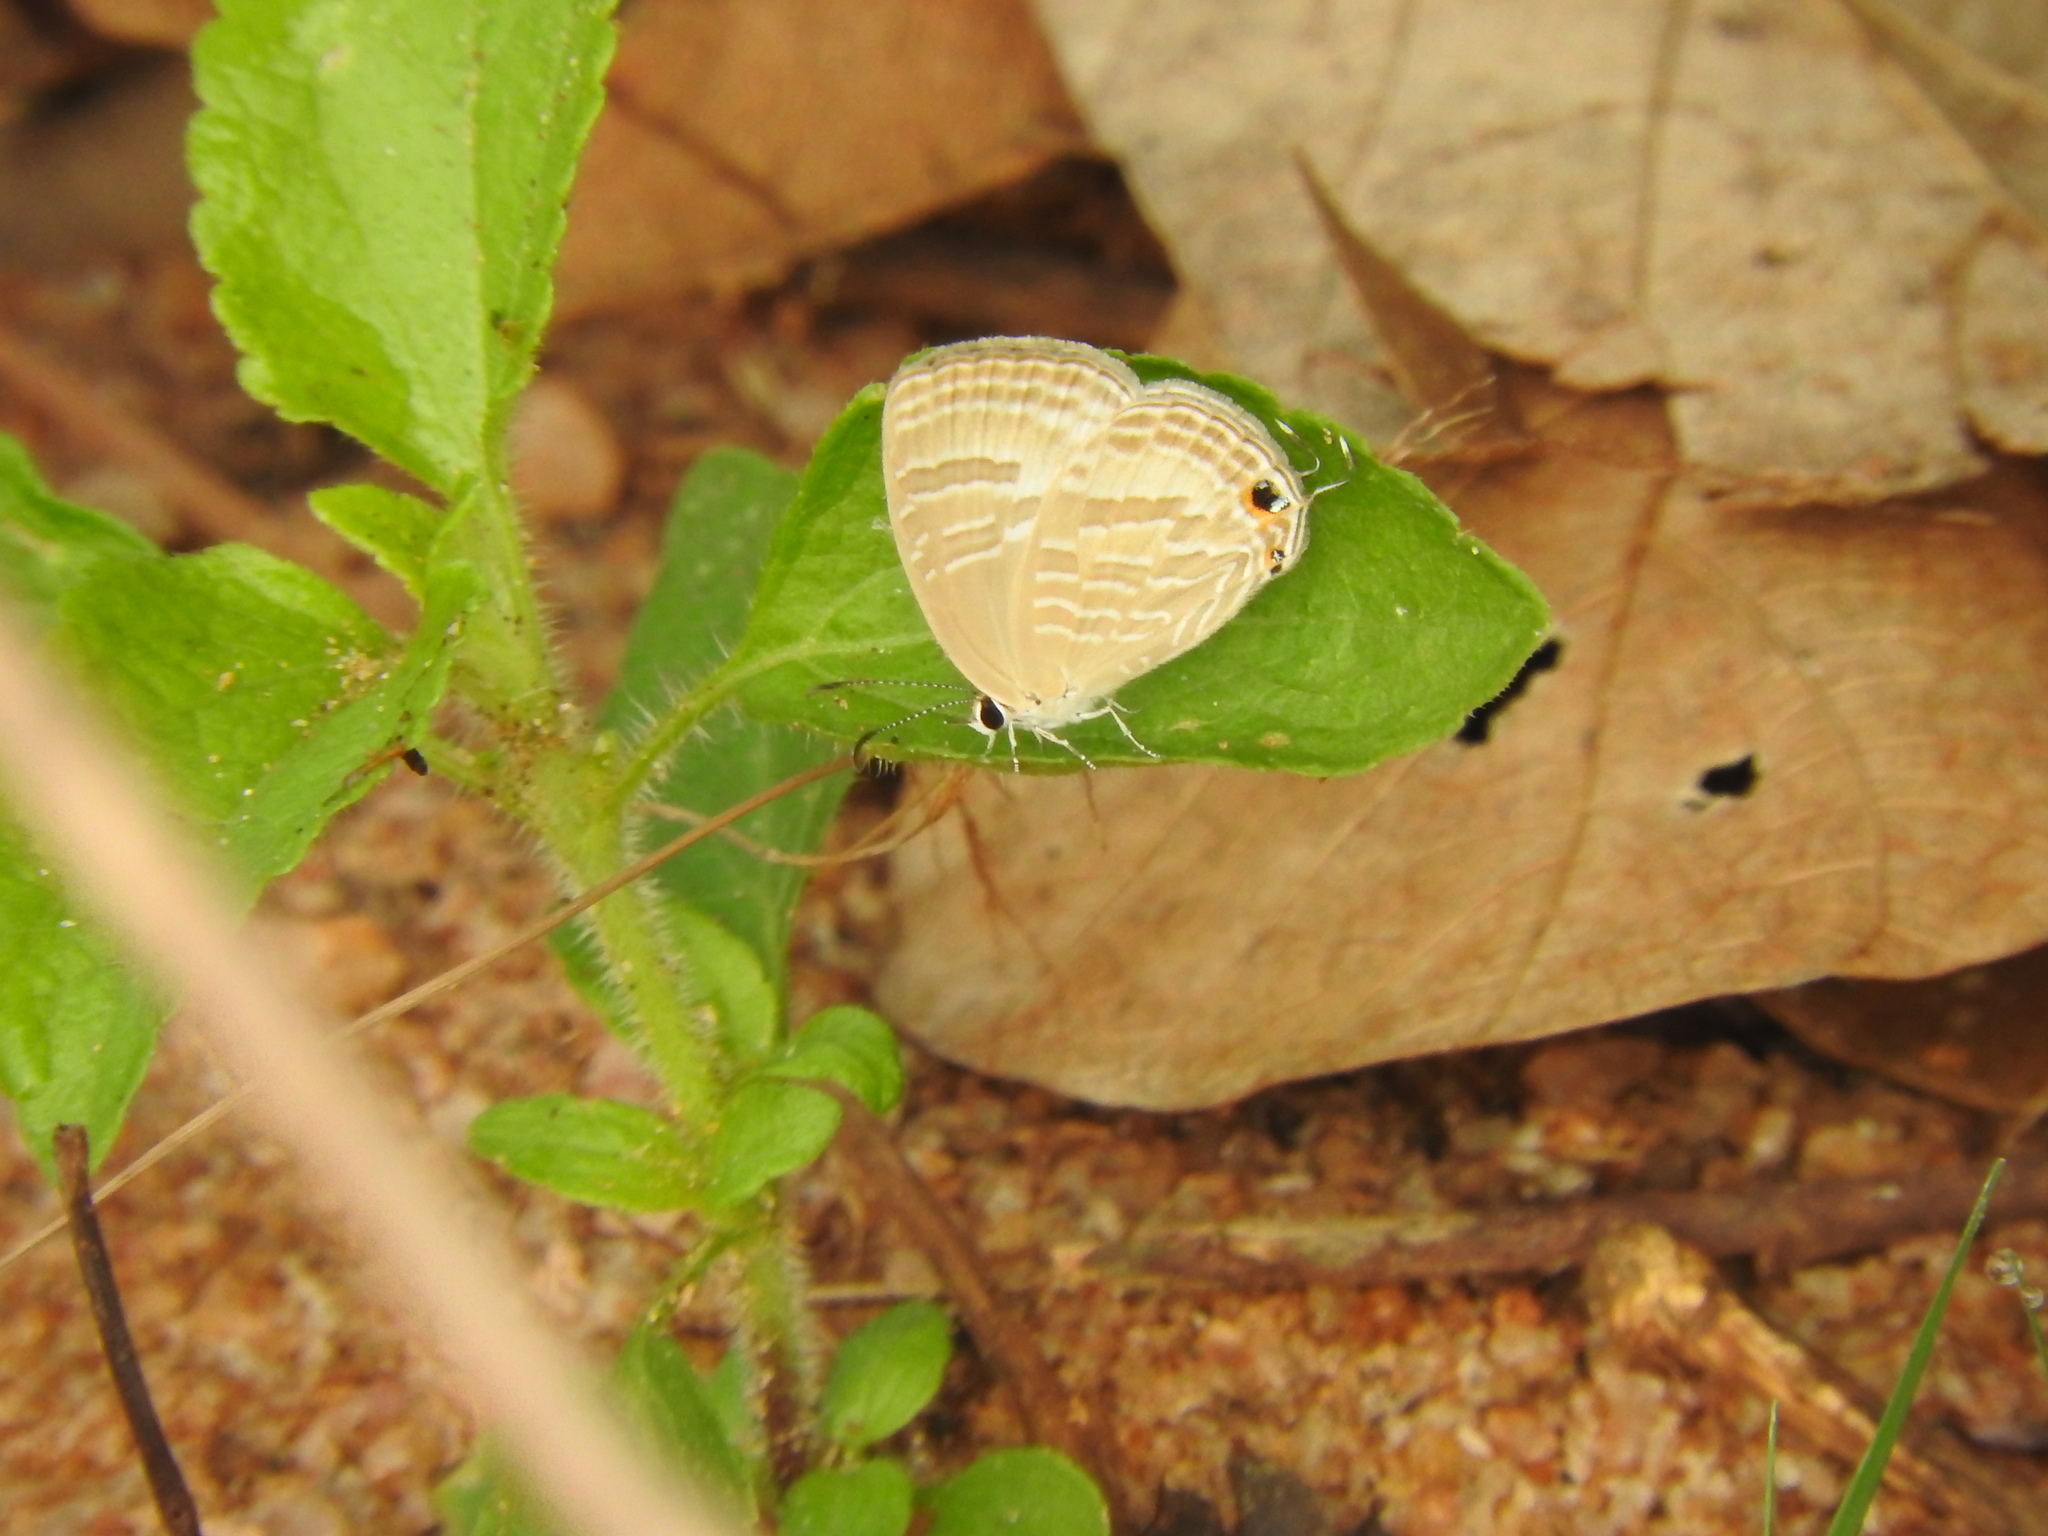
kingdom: Animalia
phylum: Arthropoda
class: Insecta
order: Lepidoptera
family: Lycaenidae
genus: Jamides
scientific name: Jamides celeno
